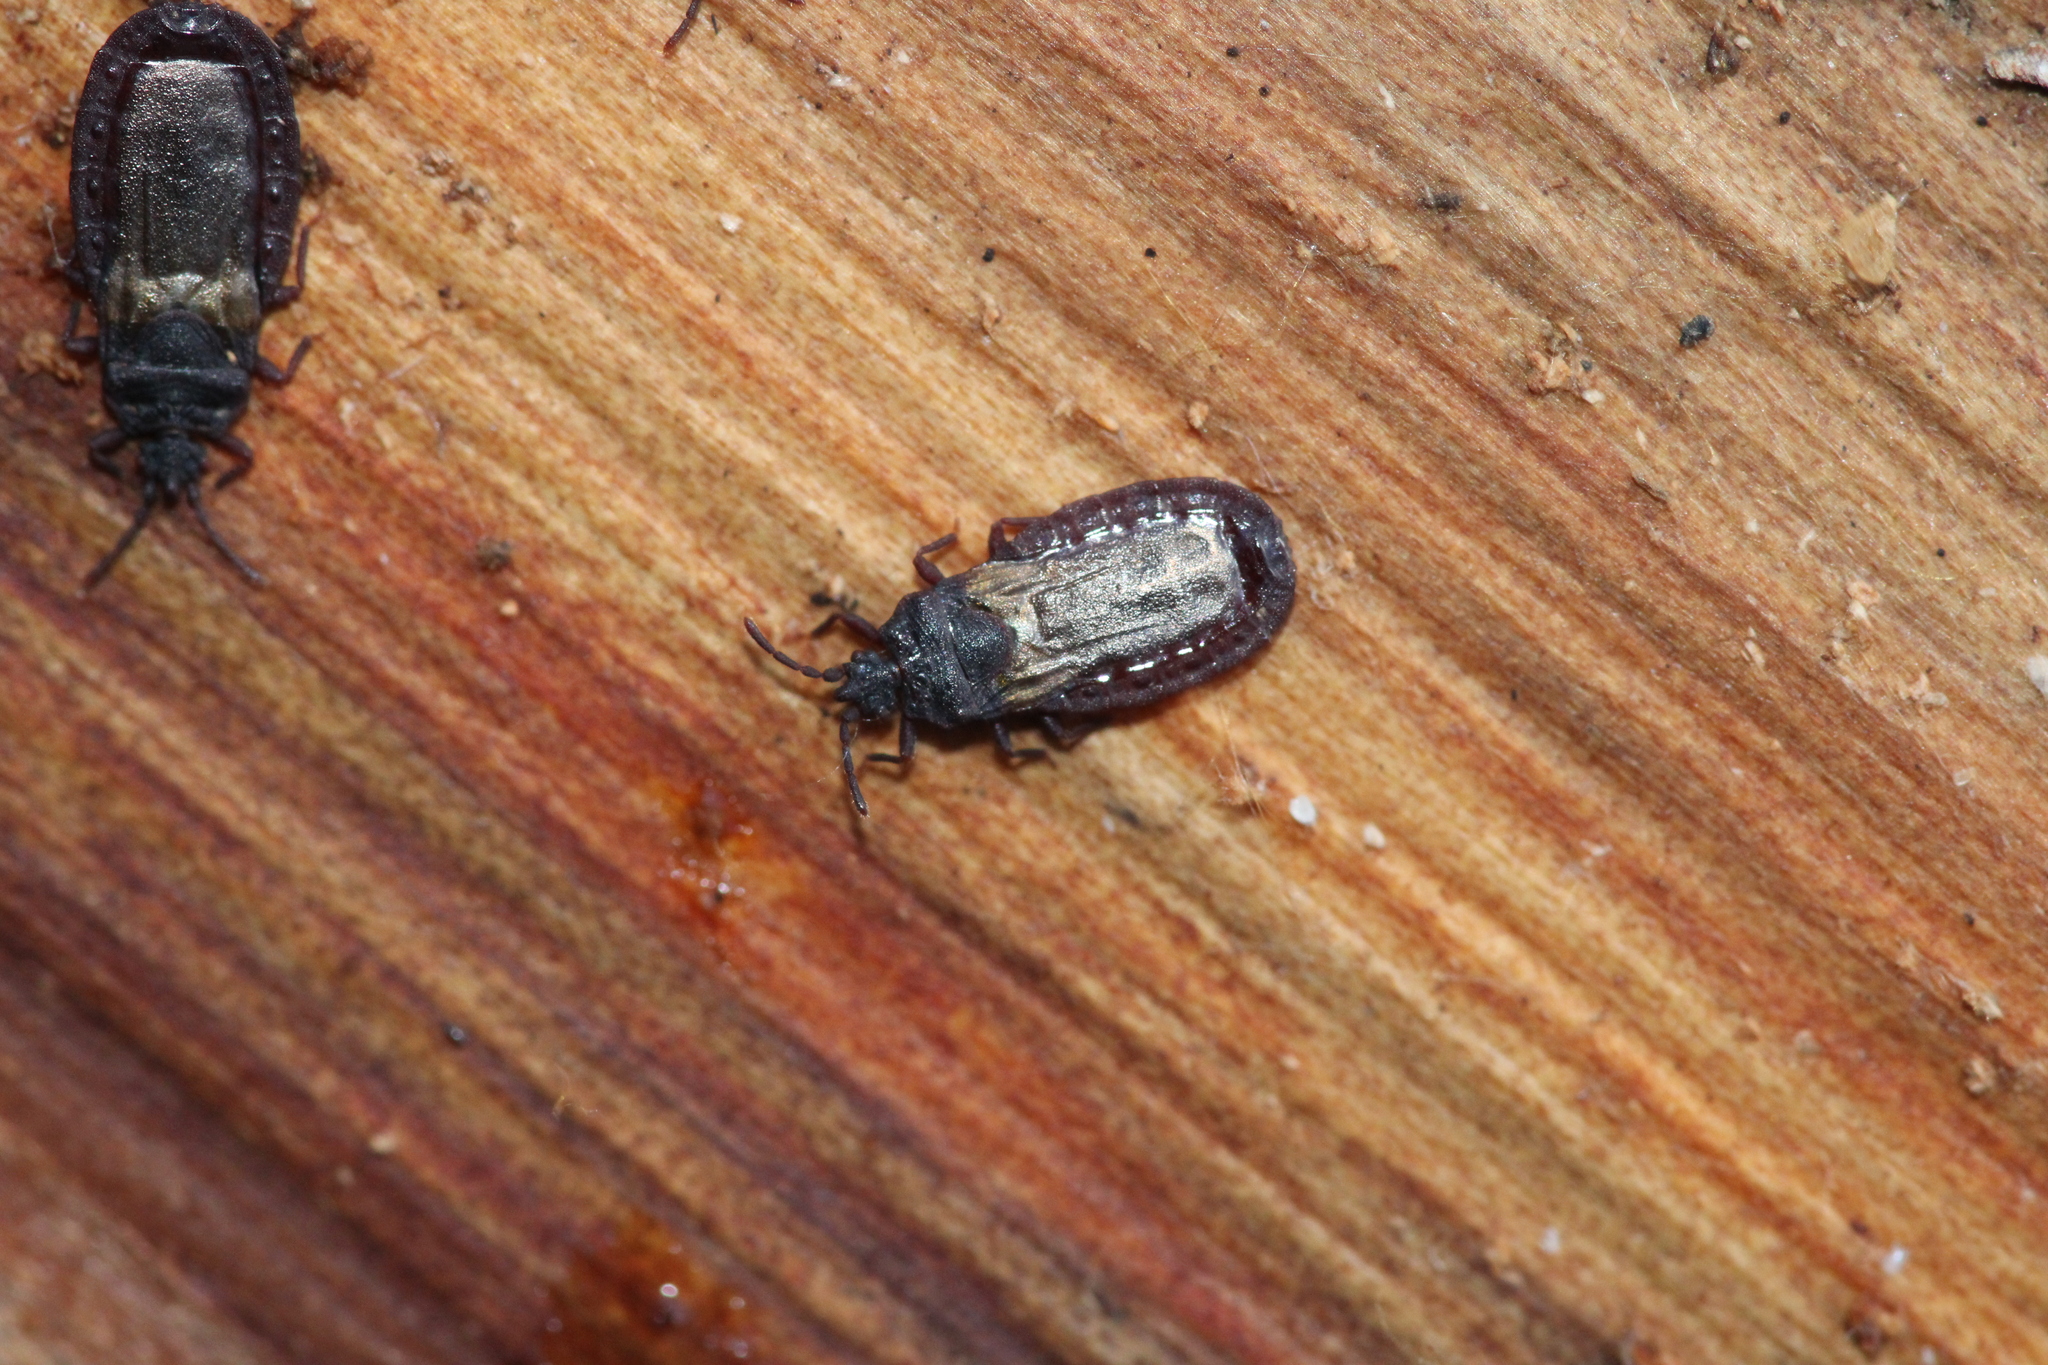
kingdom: Animalia
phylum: Arthropoda
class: Insecta
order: Hemiptera
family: Aradidae
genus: Aneurus
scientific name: Aneurus laevis
